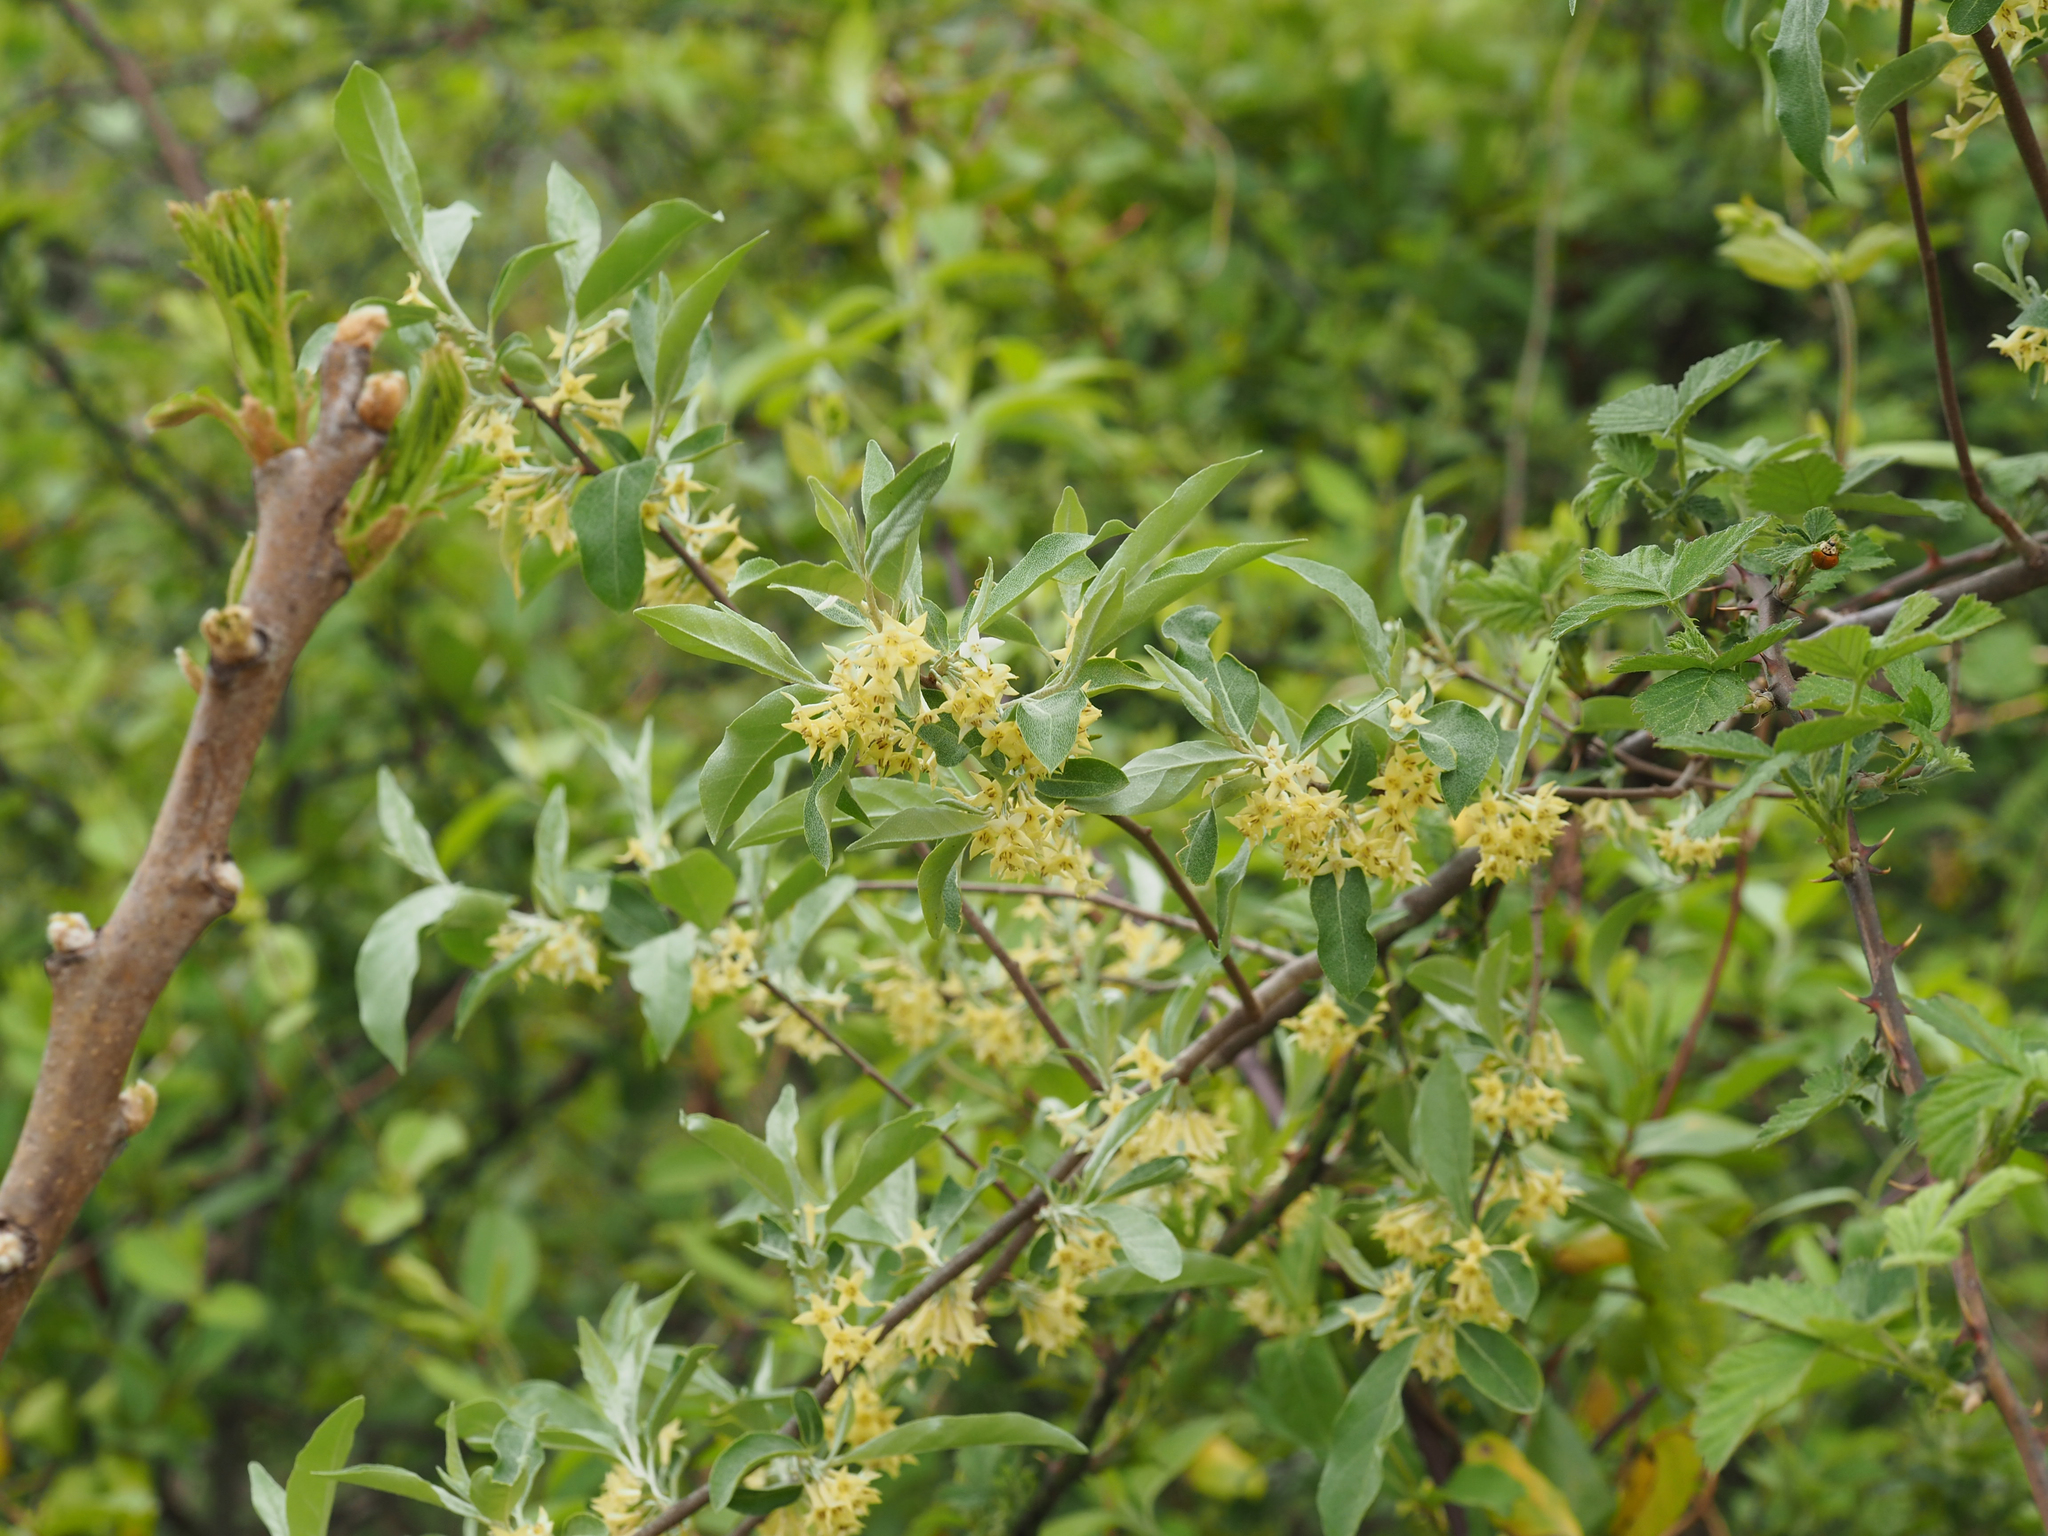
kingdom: Plantae
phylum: Tracheophyta
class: Magnoliopsida
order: Rosales
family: Elaeagnaceae
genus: Elaeagnus
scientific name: Elaeagnus umbellata
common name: Autumn olive
